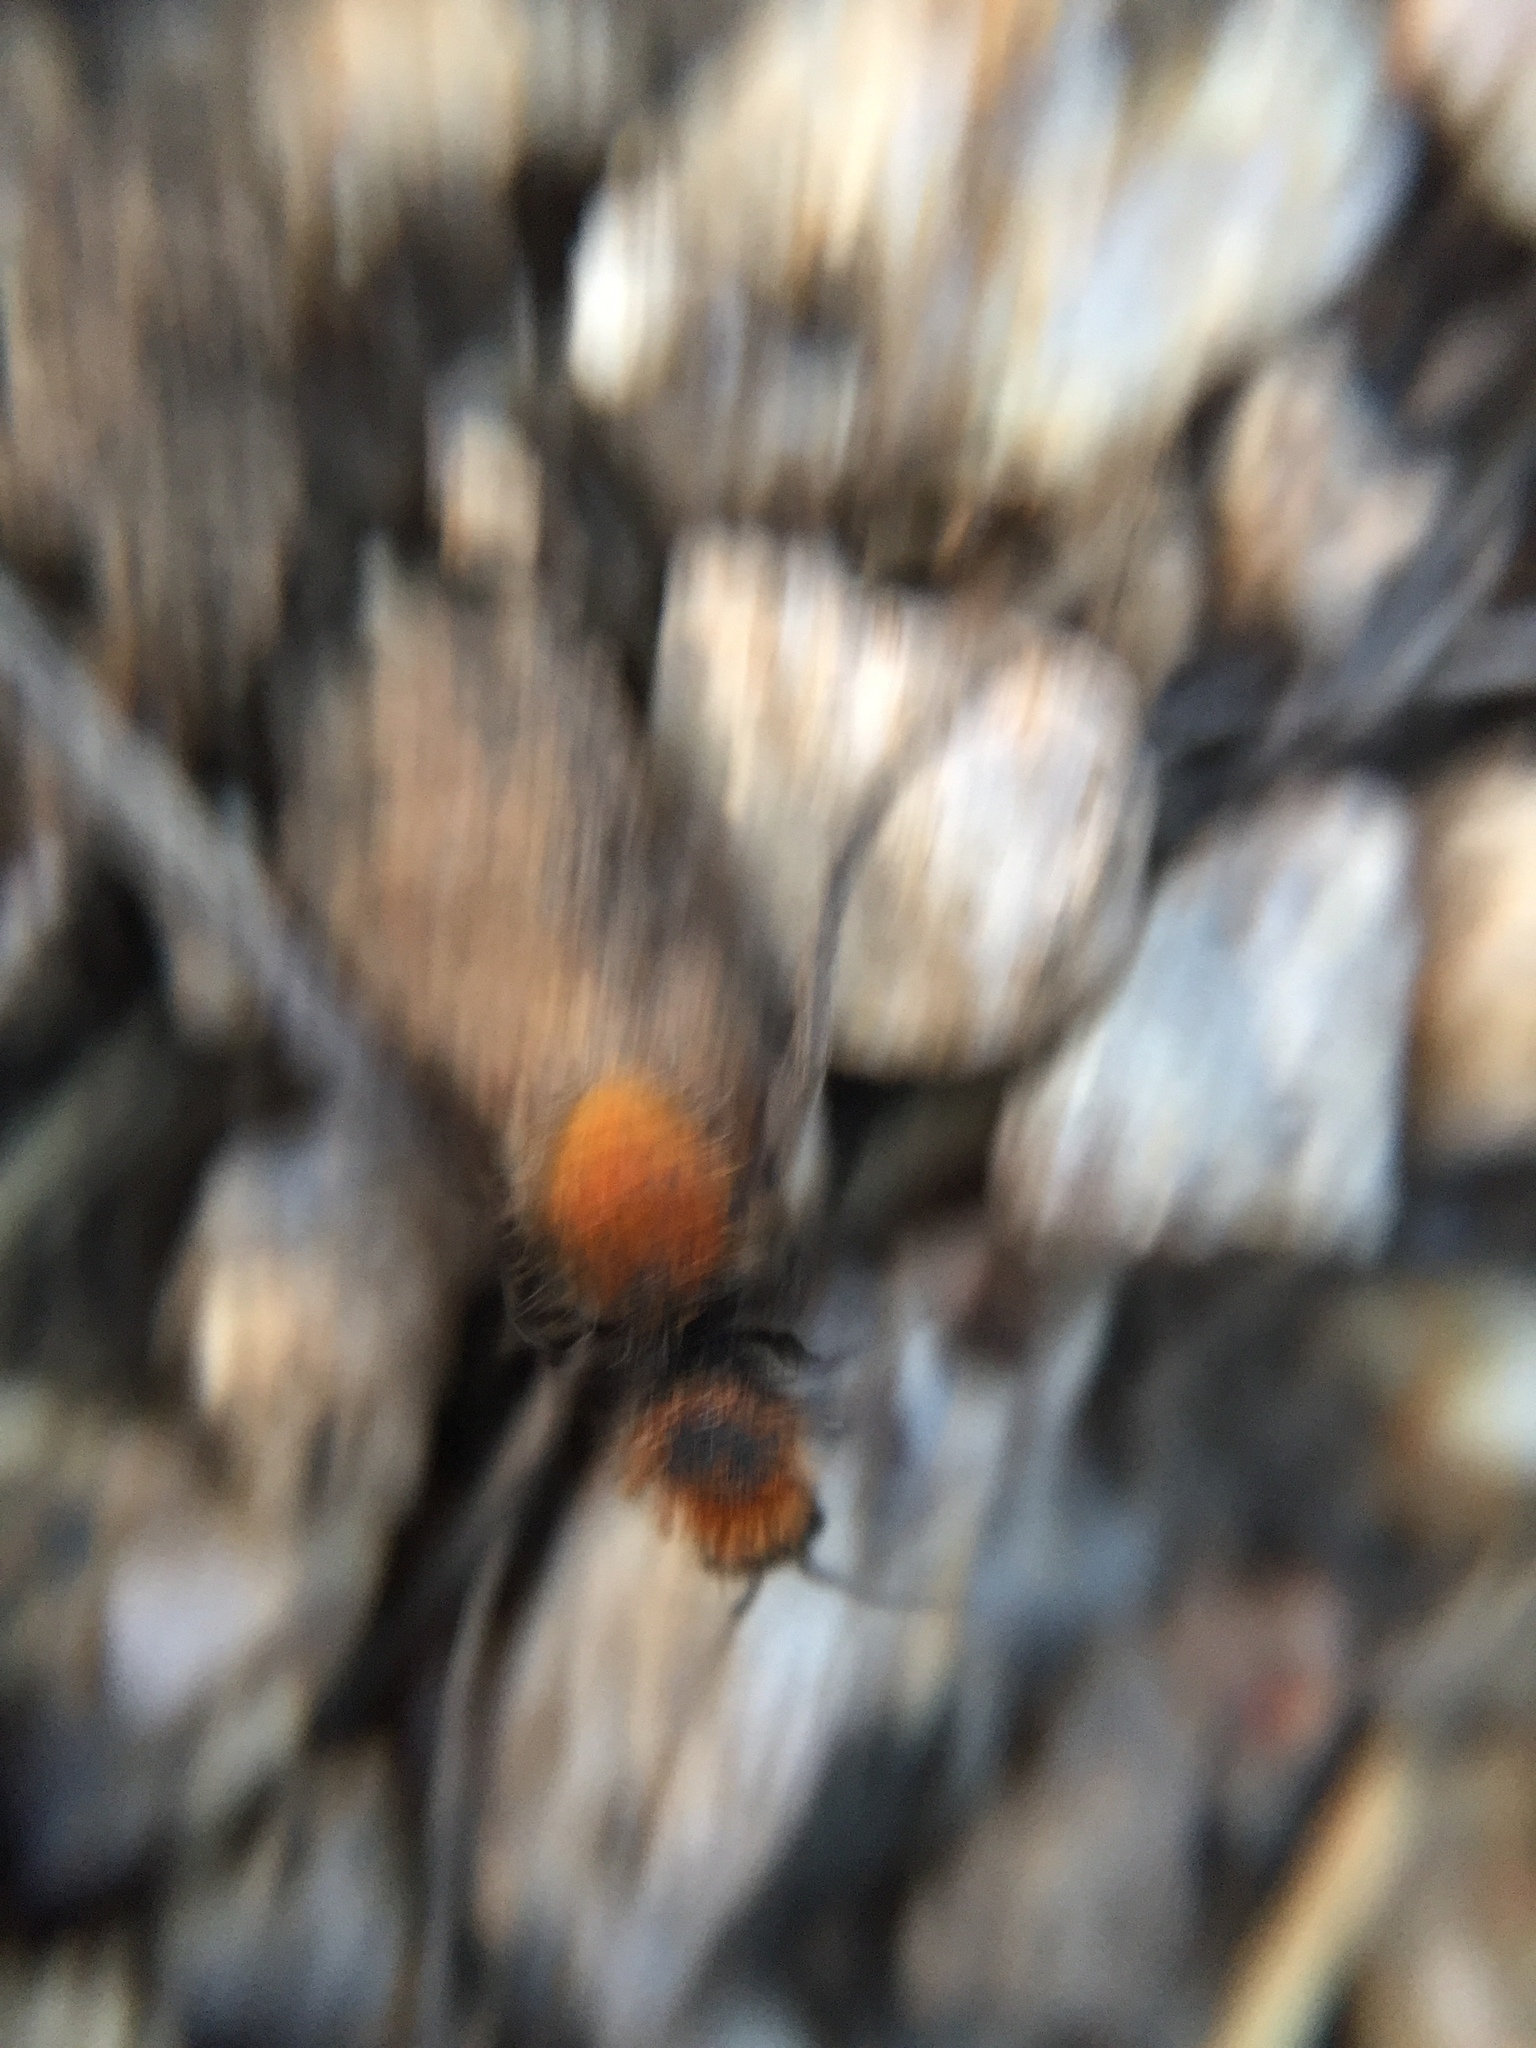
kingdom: Animalia
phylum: Arthropoda
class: Insecta
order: Hymenoptera
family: Mutillidae
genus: Dasymutilla
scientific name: Dasymutilla vestita
